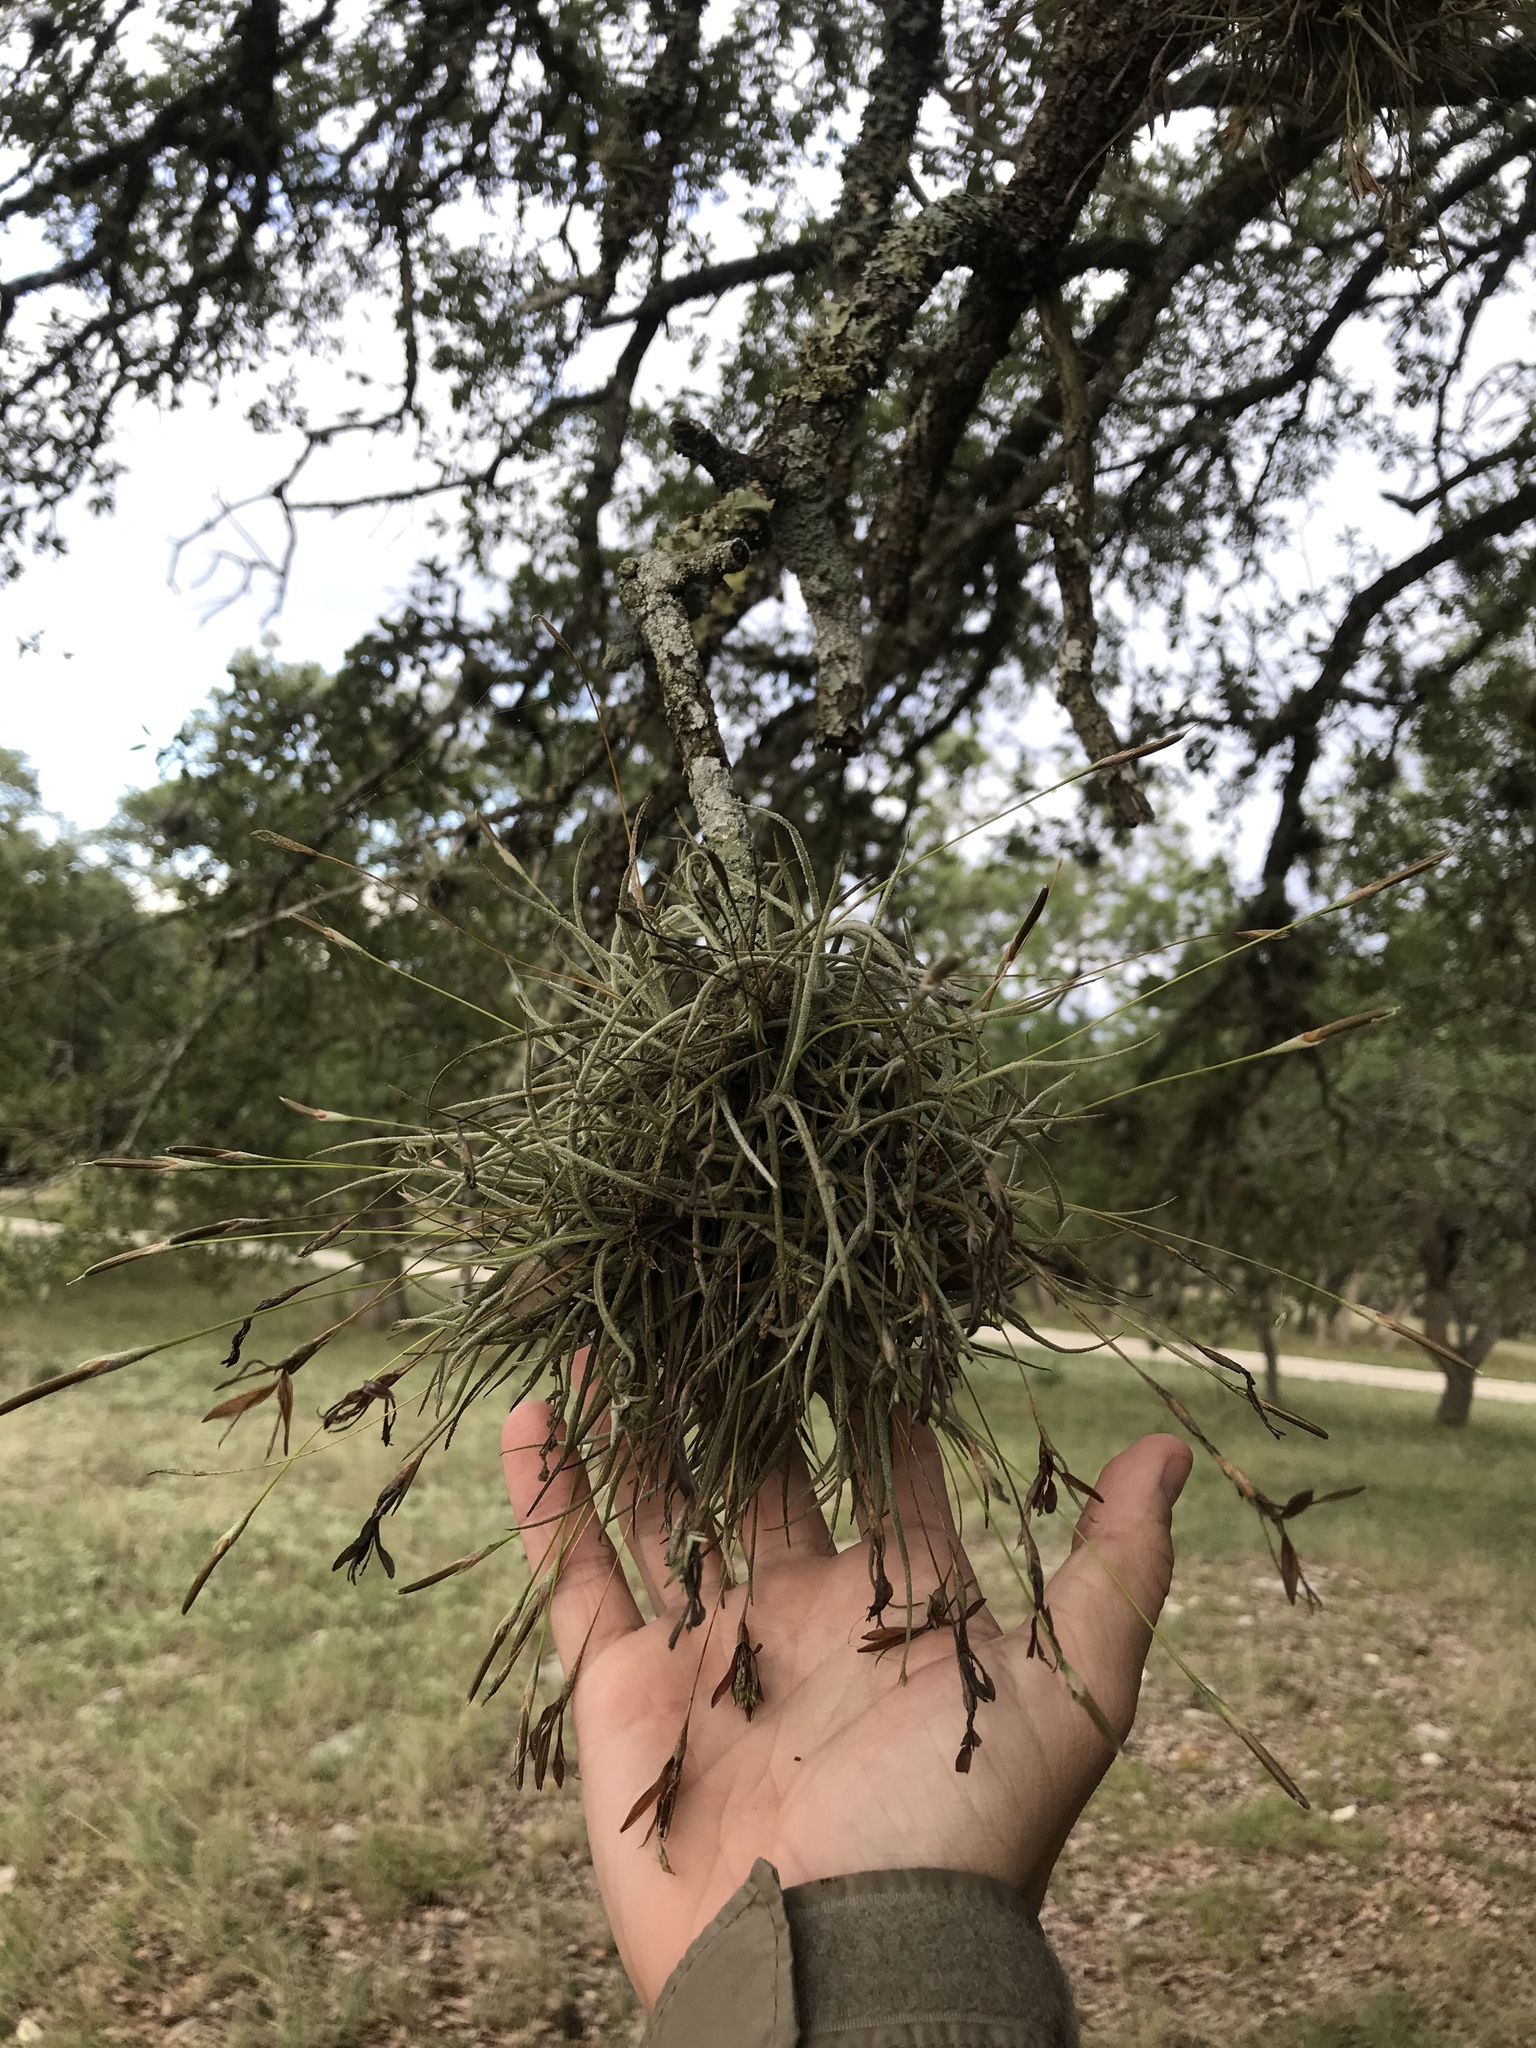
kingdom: Plantae
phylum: Tracheophyta
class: Liliopsida
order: Poales
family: Bromeliaceae
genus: Tillandsia
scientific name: Tillandsia recurvata
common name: Small ballmoss
